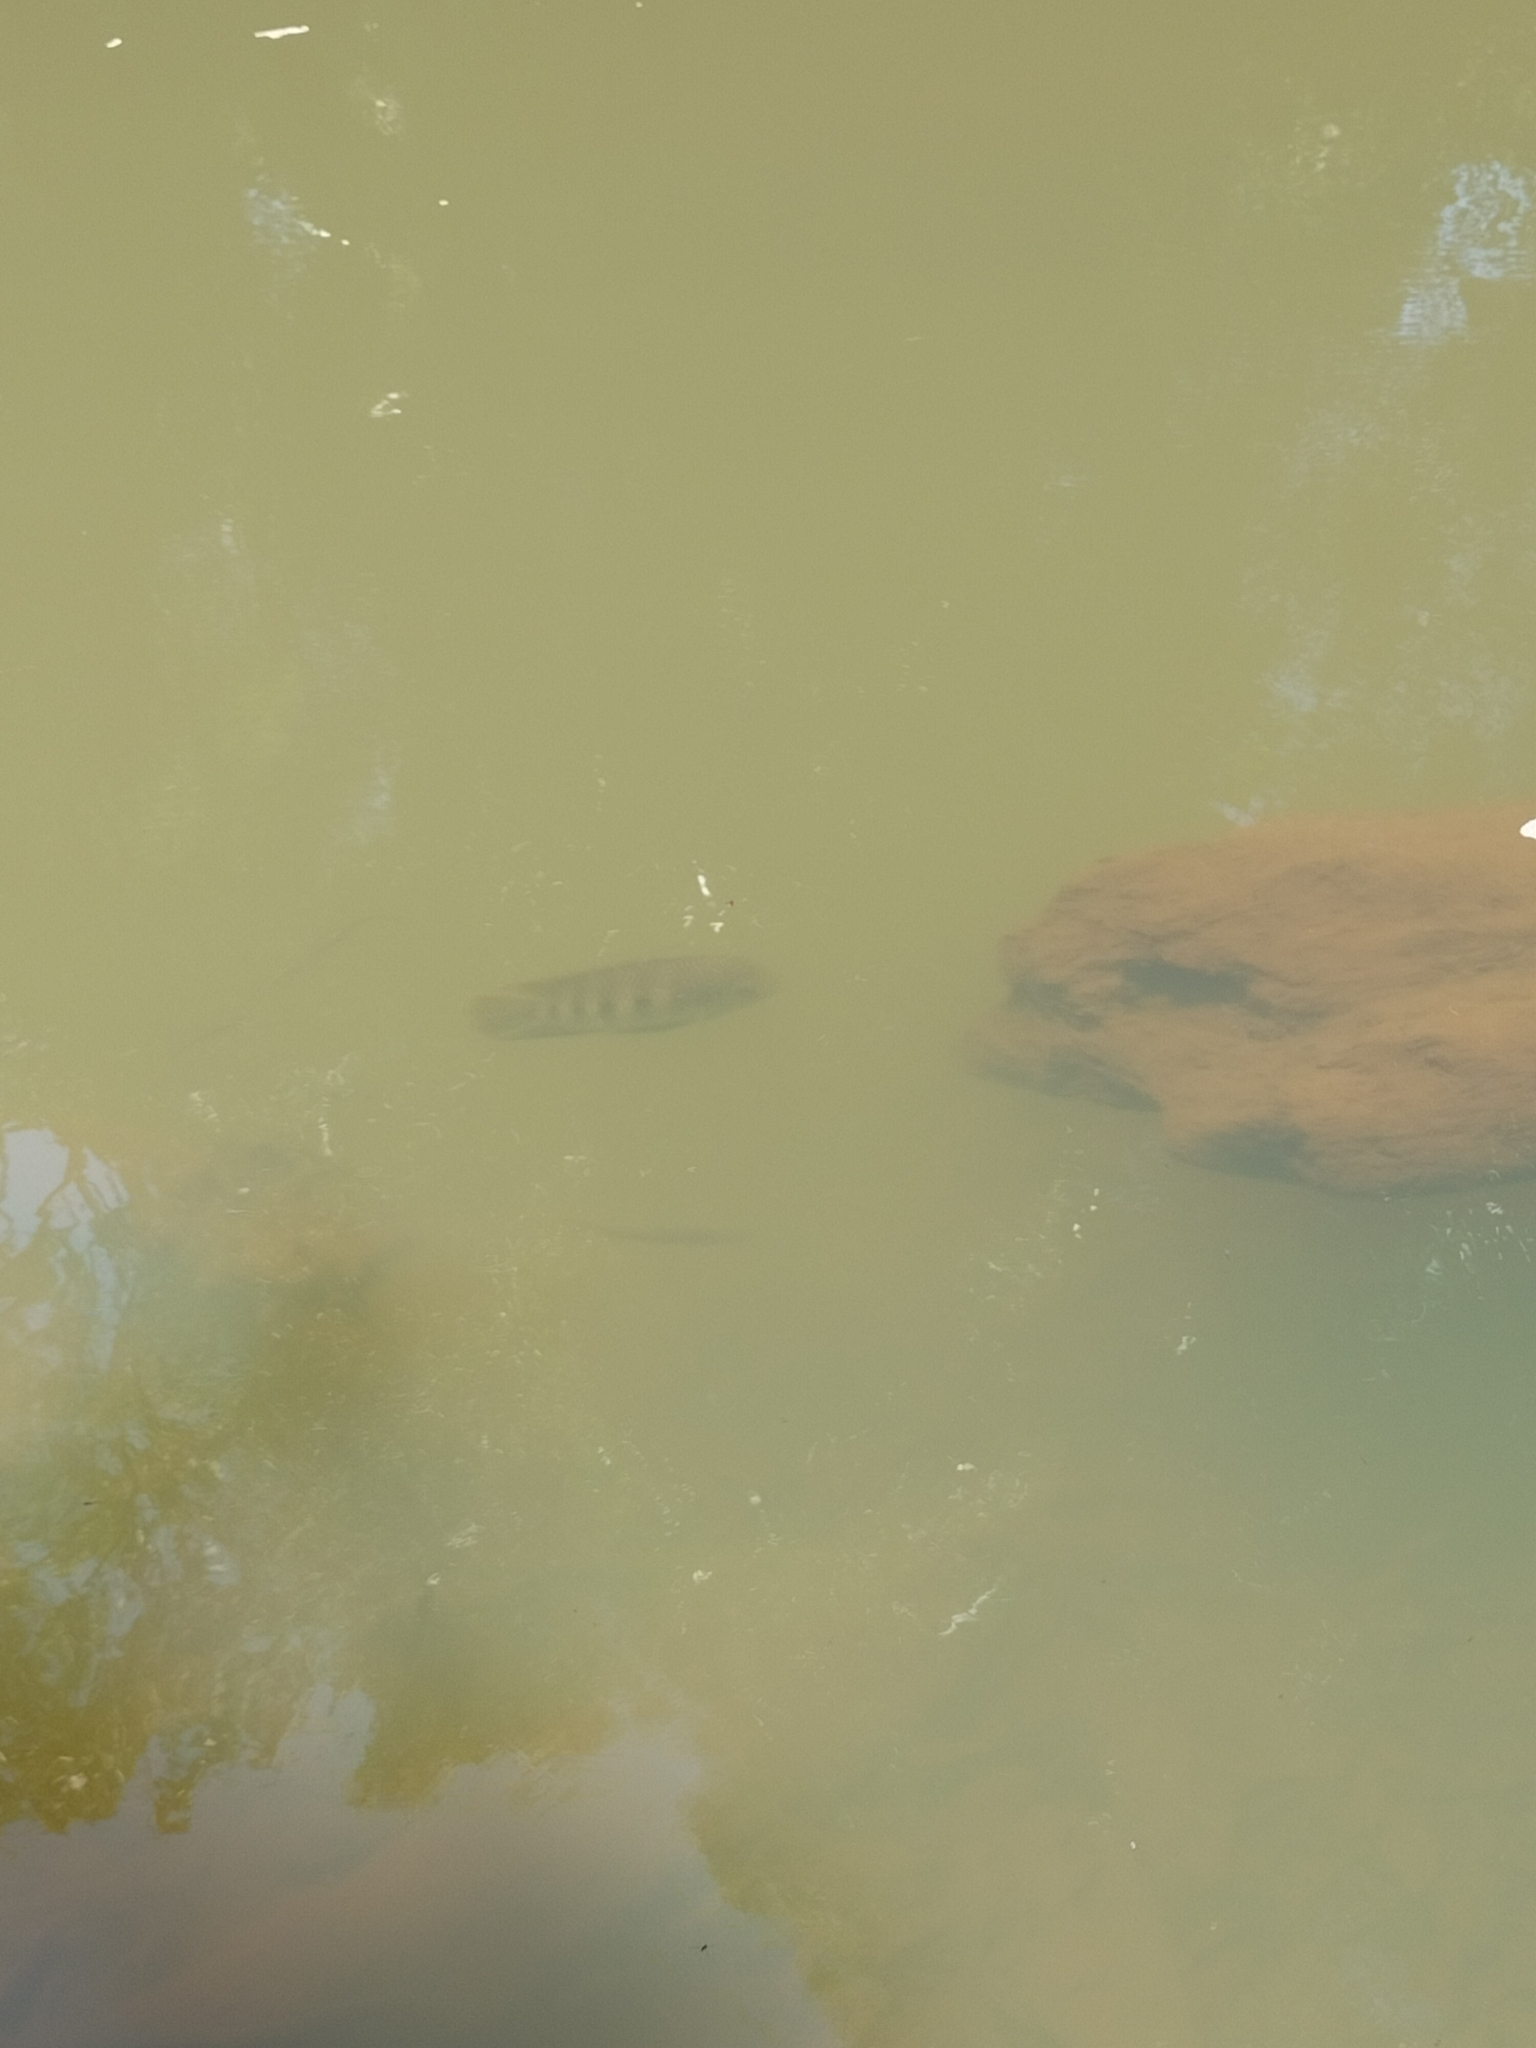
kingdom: Animalia
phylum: Chordata
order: Perciformes
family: Cichlidae
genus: Pelmatolapia
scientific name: Pelmatolapia mariae
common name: Spotted tilapia
